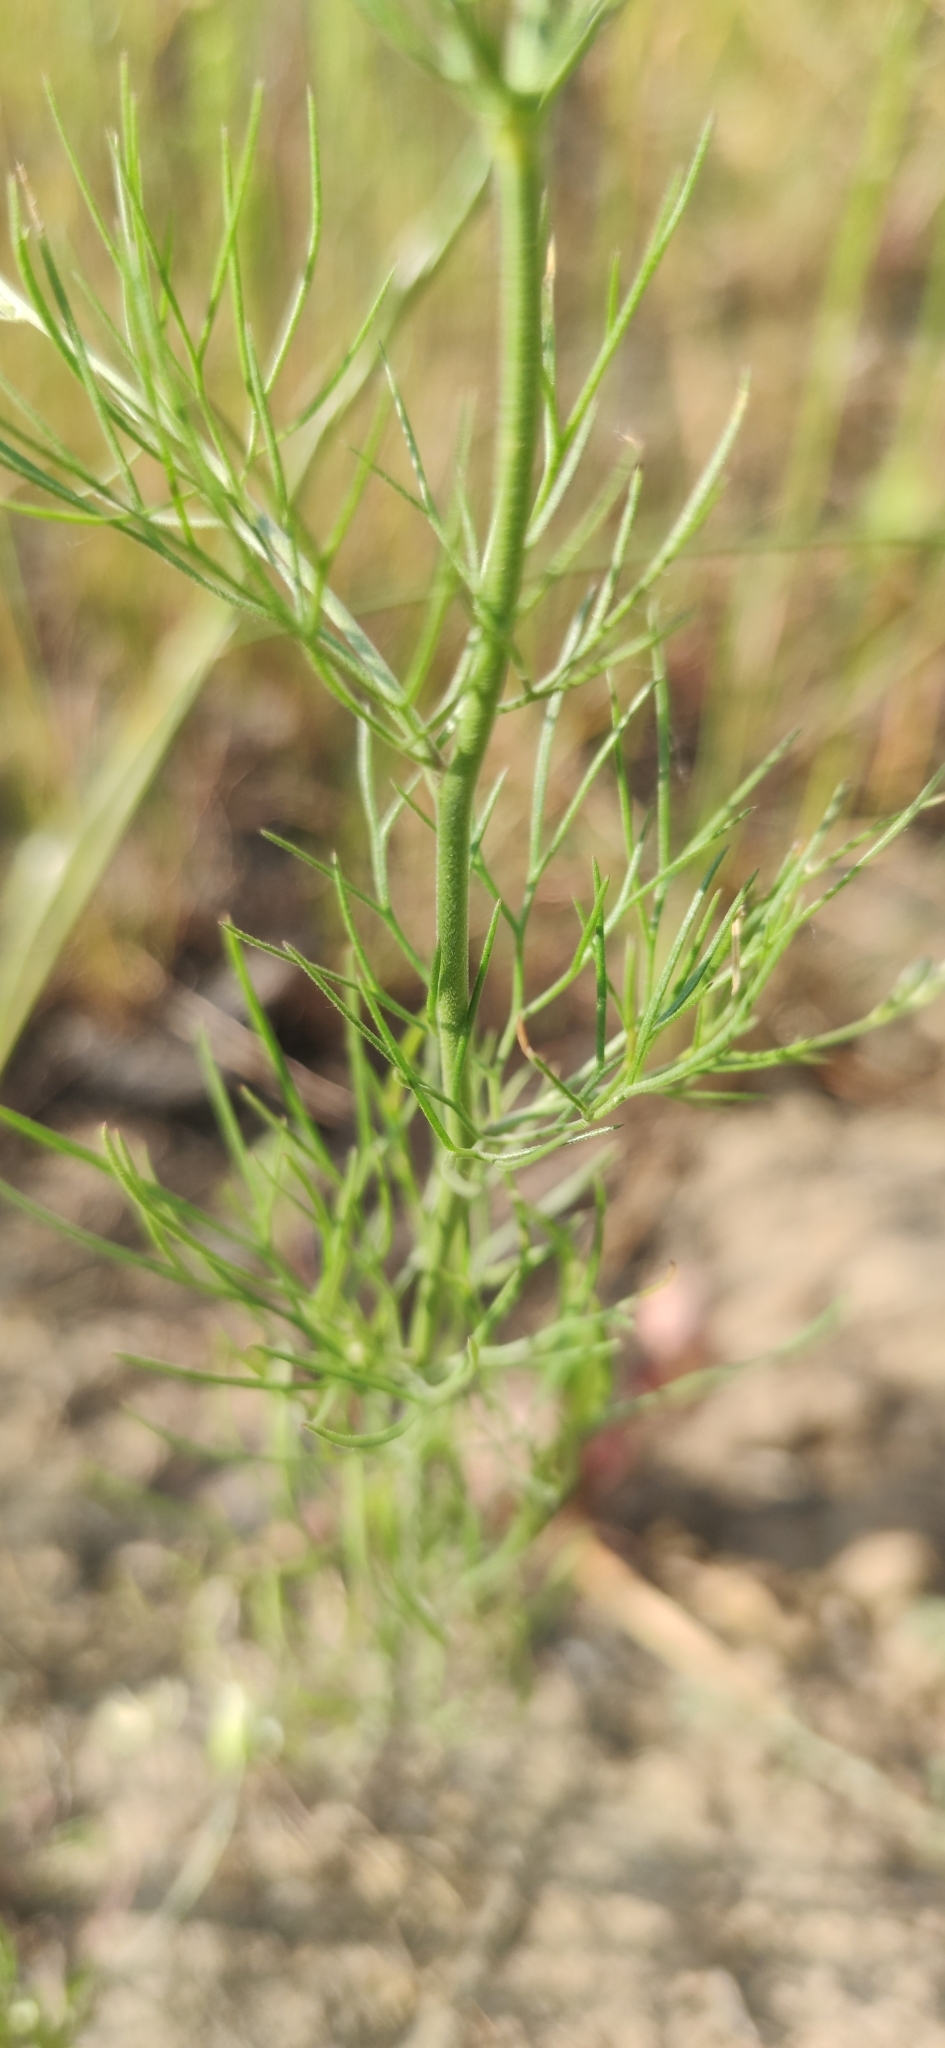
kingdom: Plantae
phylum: Tracheophyta
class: Magnoliopsida
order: Ranunculales
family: Ranunculaceae
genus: Delphinium
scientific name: Delphinium consolida
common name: Branching larkspur
